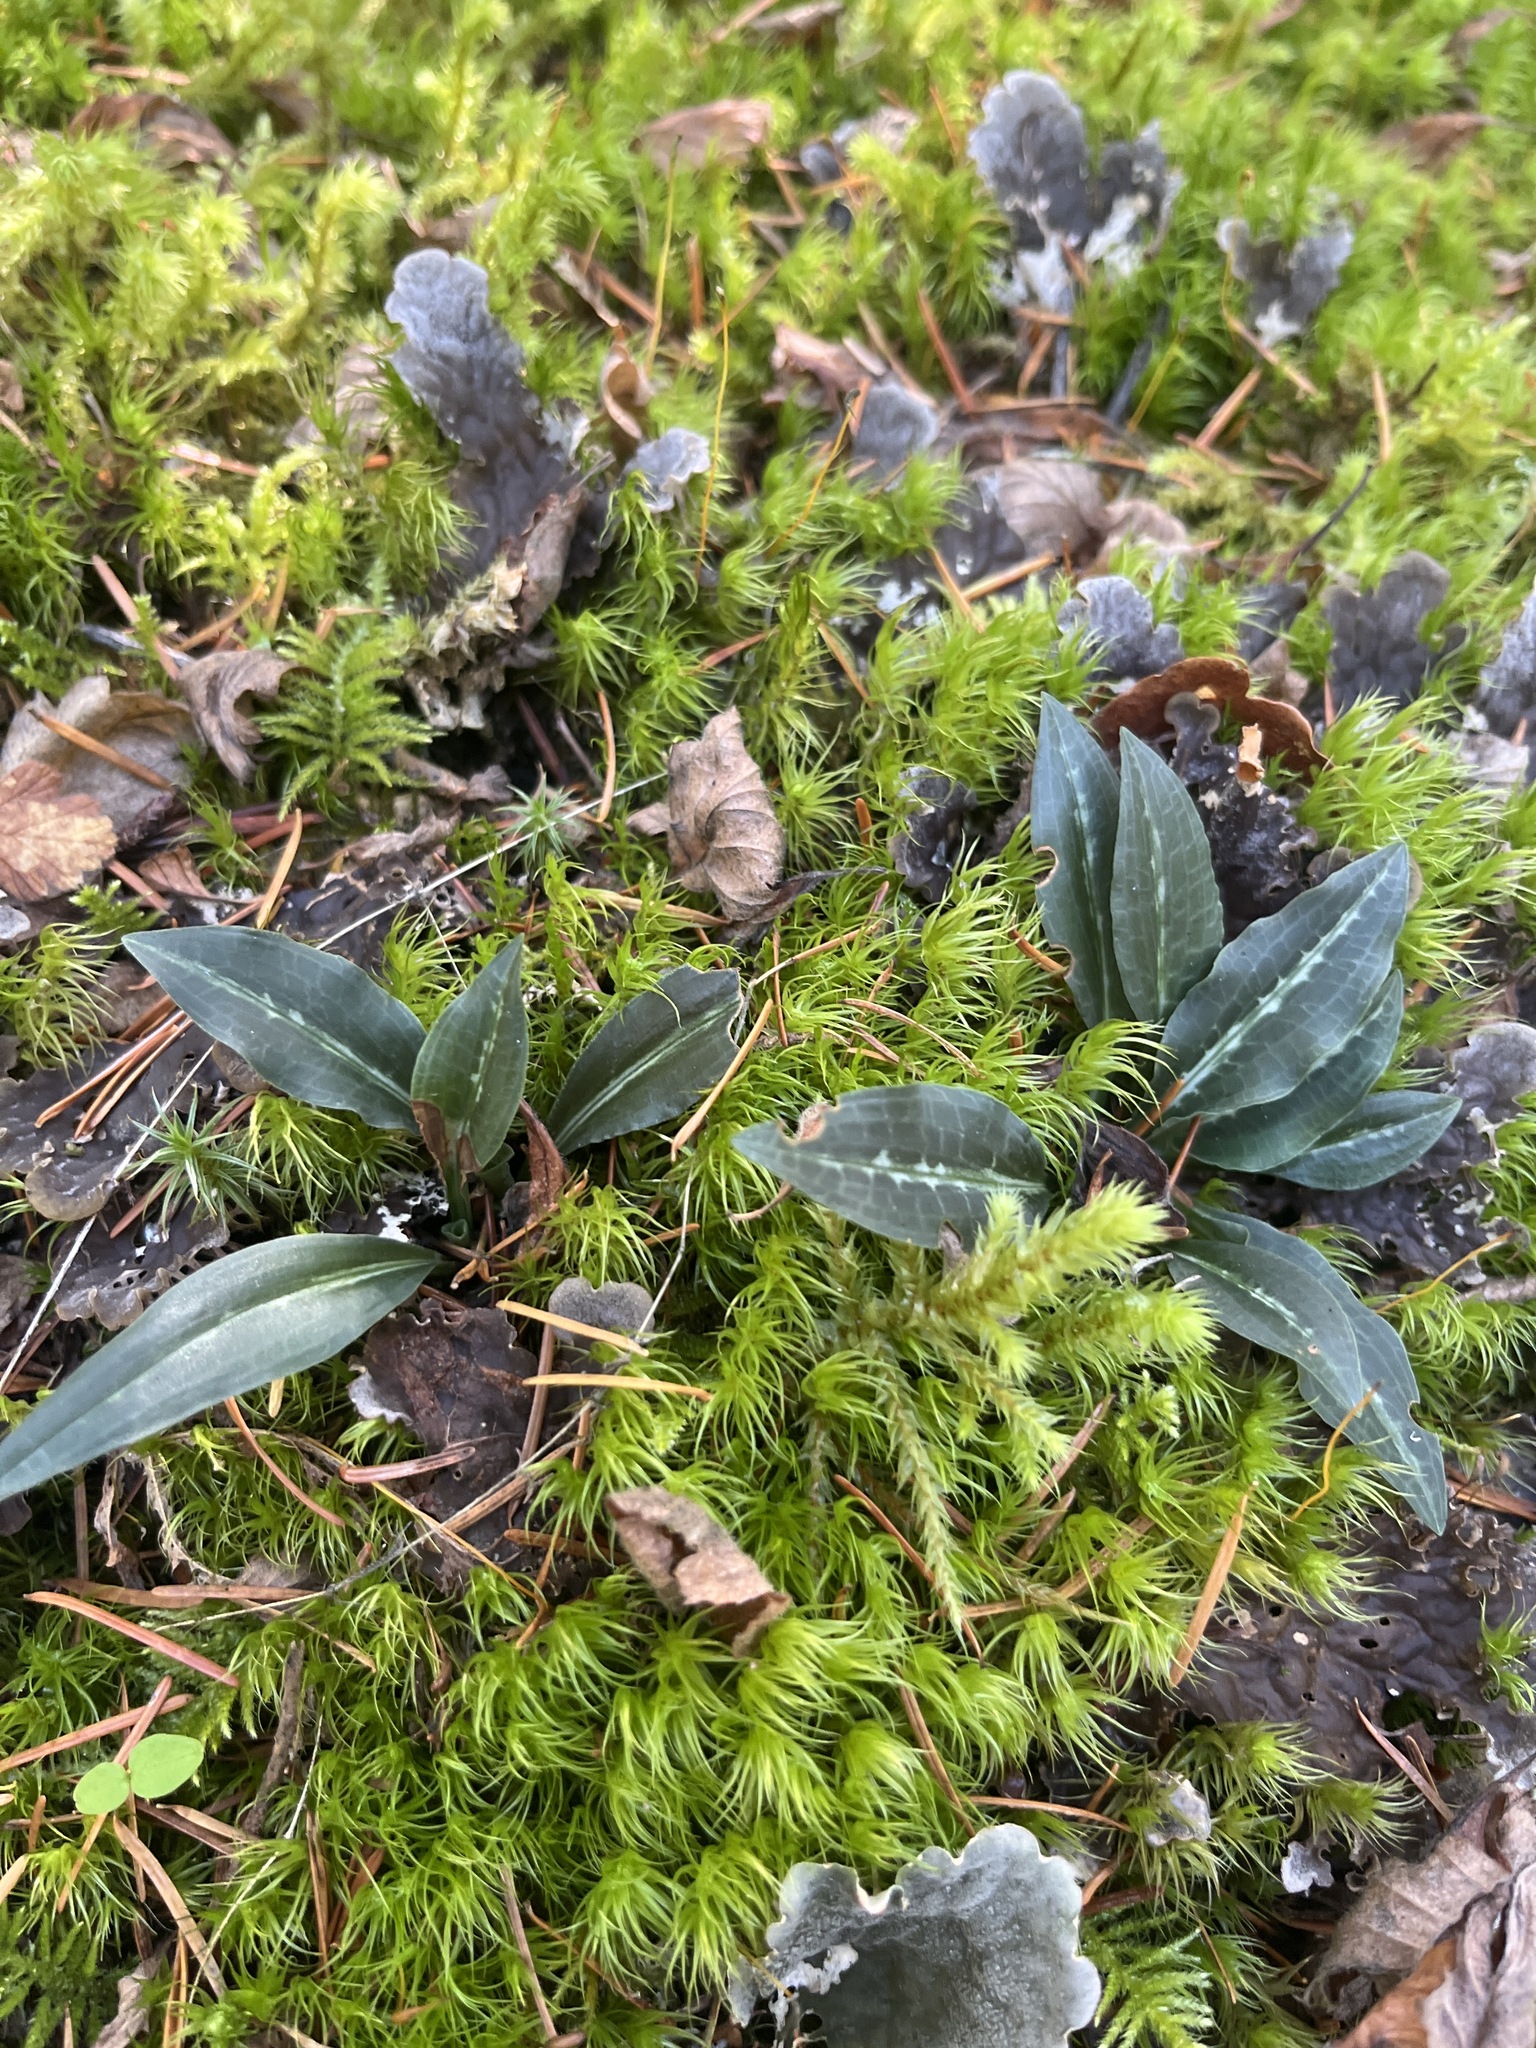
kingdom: Plantae
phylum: Tracheophyta
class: Liliopsida
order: Asparagales
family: Orchidaceae
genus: Goodyera
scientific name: Goodyera oblongifolia
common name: Giant rattlesnake-plantain
